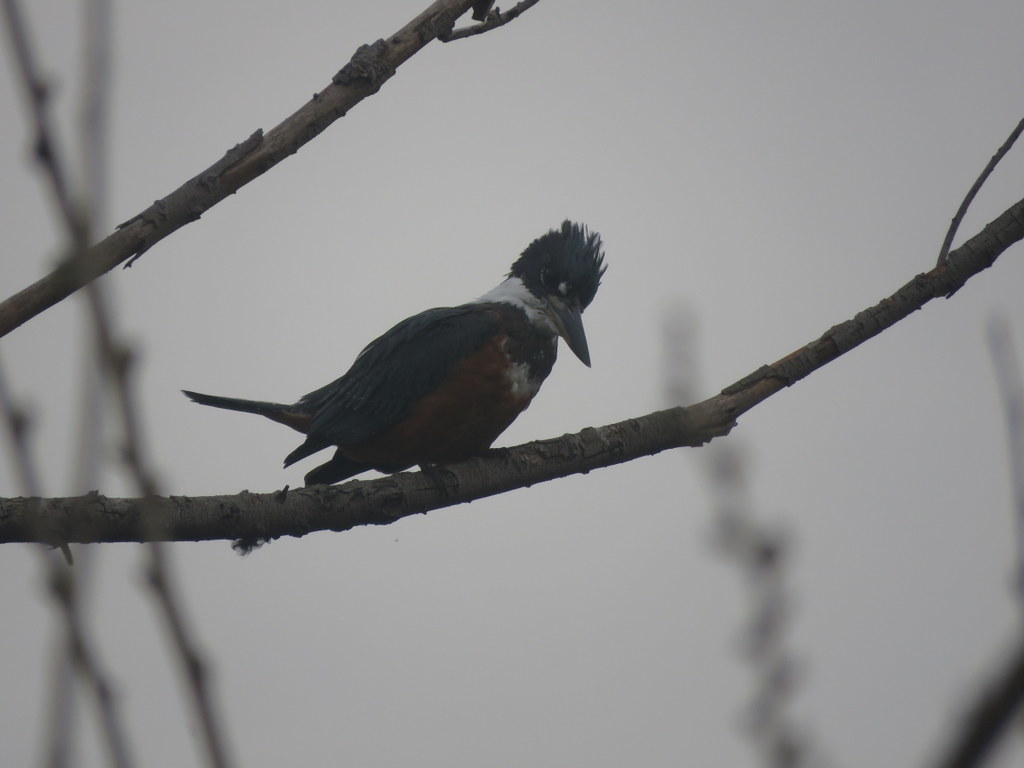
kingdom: Animalia
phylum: Chordata
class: Aves
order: Coraciiformes
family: Alcedinidae
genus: Megaceryle
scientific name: Megaceryle torquata
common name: Ringed kingfisher
